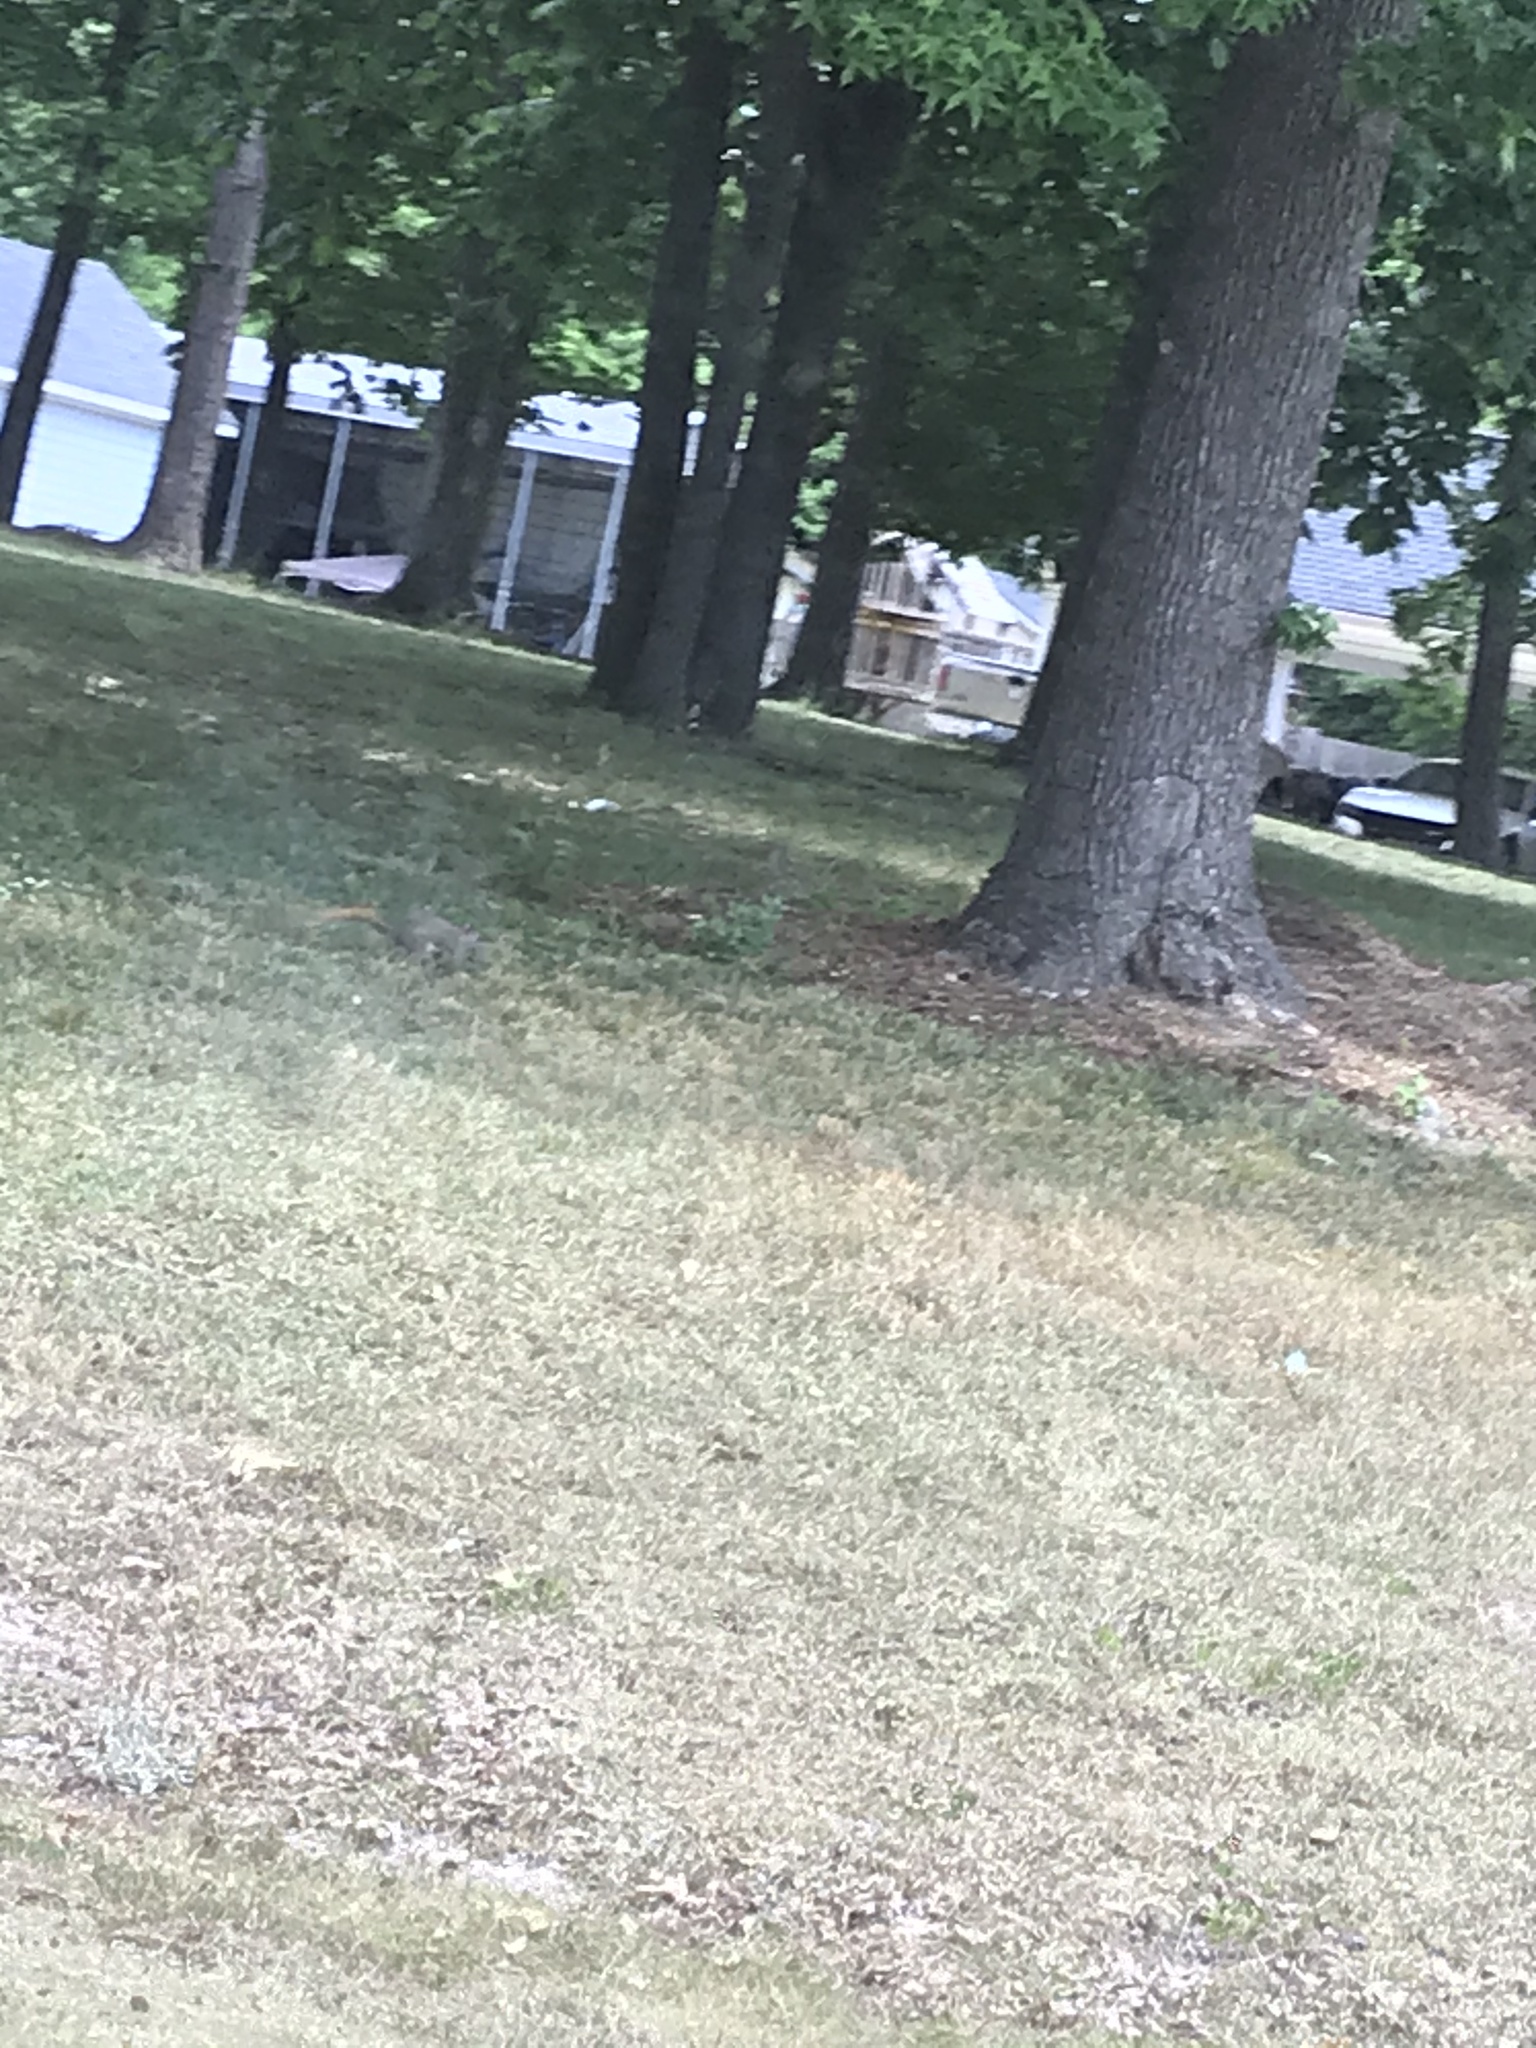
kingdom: Animalia
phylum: Chordata
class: Mammalia
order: Rodentia
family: Sciuridae
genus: Sciurus
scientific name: Sciurus carolinensis
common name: Eastern gray squirrel
